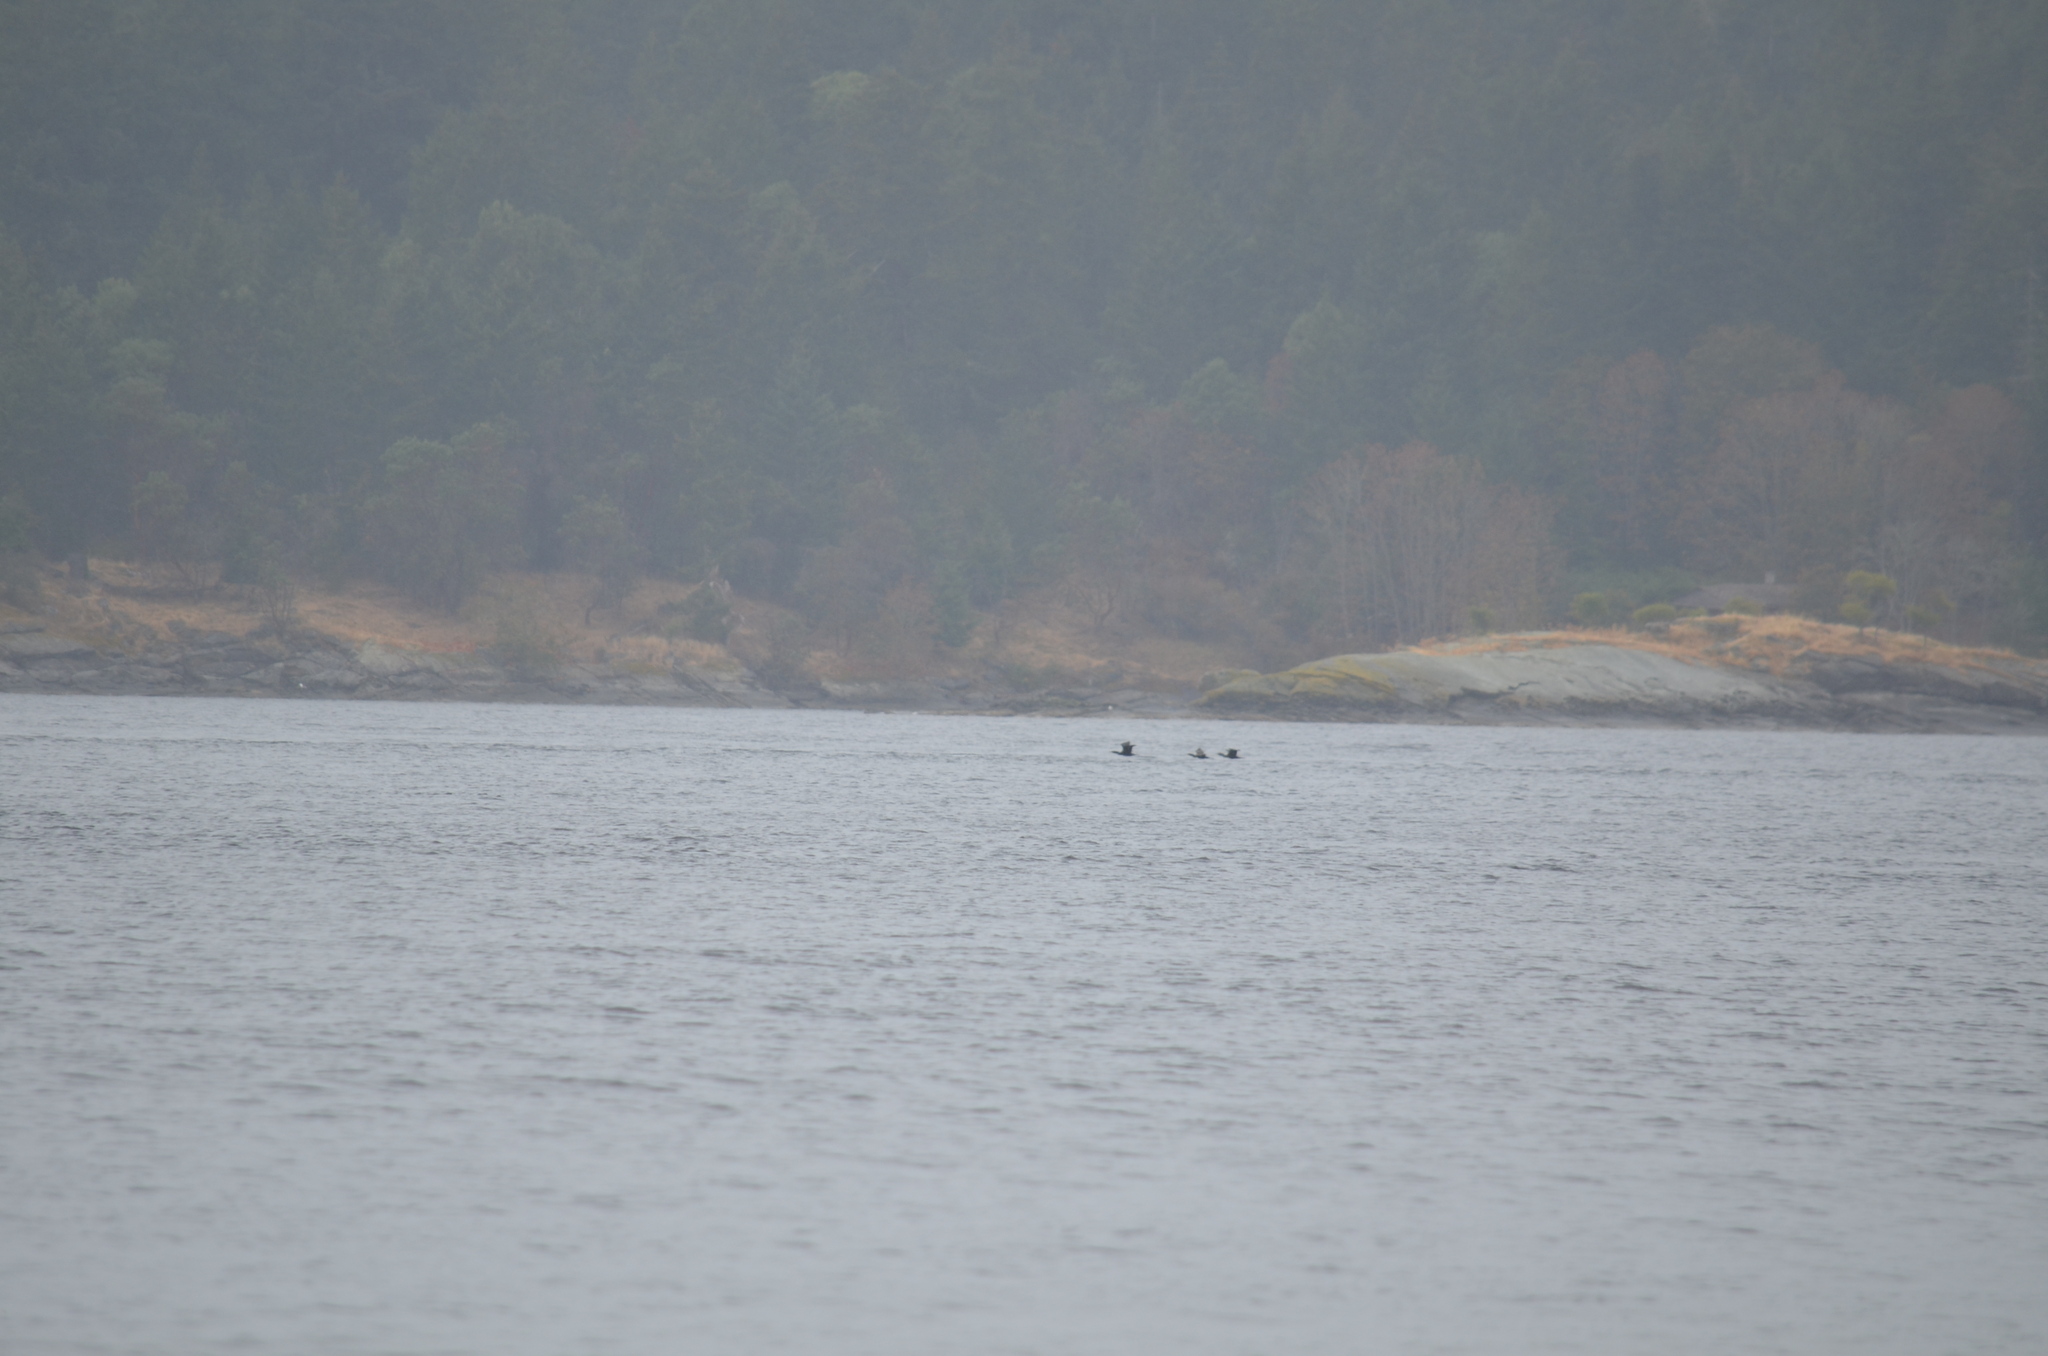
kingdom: Animalia
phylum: Chordata
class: Aves
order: Suliformes
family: Phalacrocoracidae
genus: Phalacrocorax
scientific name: Phalacrocorax auritus
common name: Double-crested cormorant
